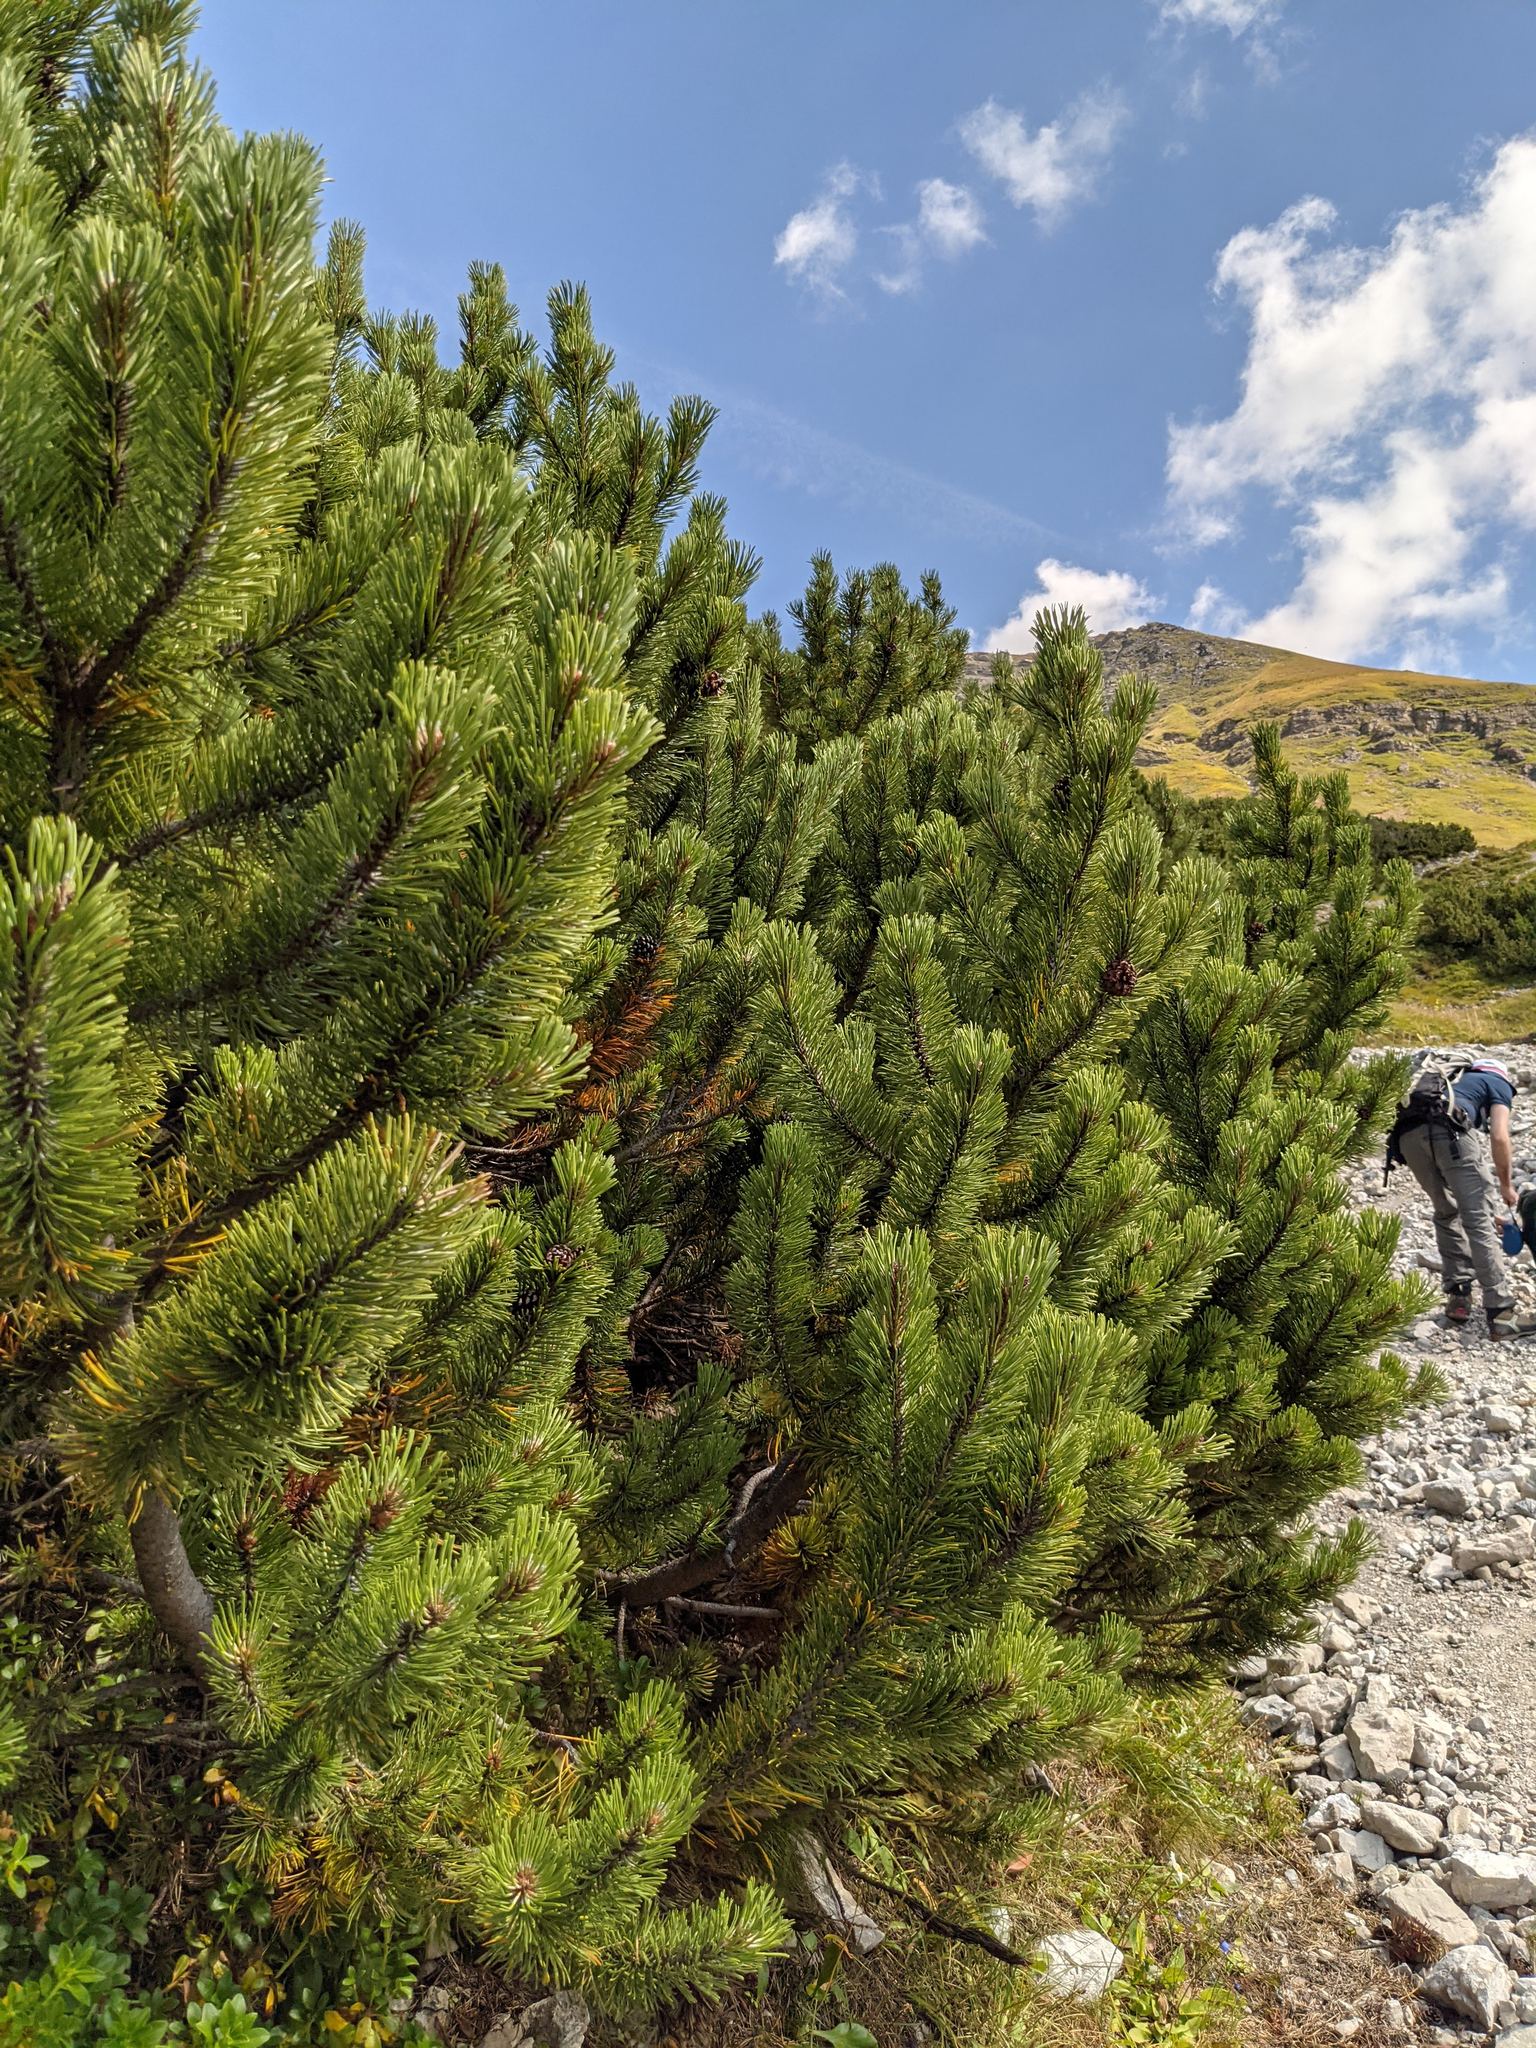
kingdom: Plantae
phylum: Tracheophyta
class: Pinopsida
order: Pinales
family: Pinaceae
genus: Pinus
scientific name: Pinus mugo
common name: Mugo pine
